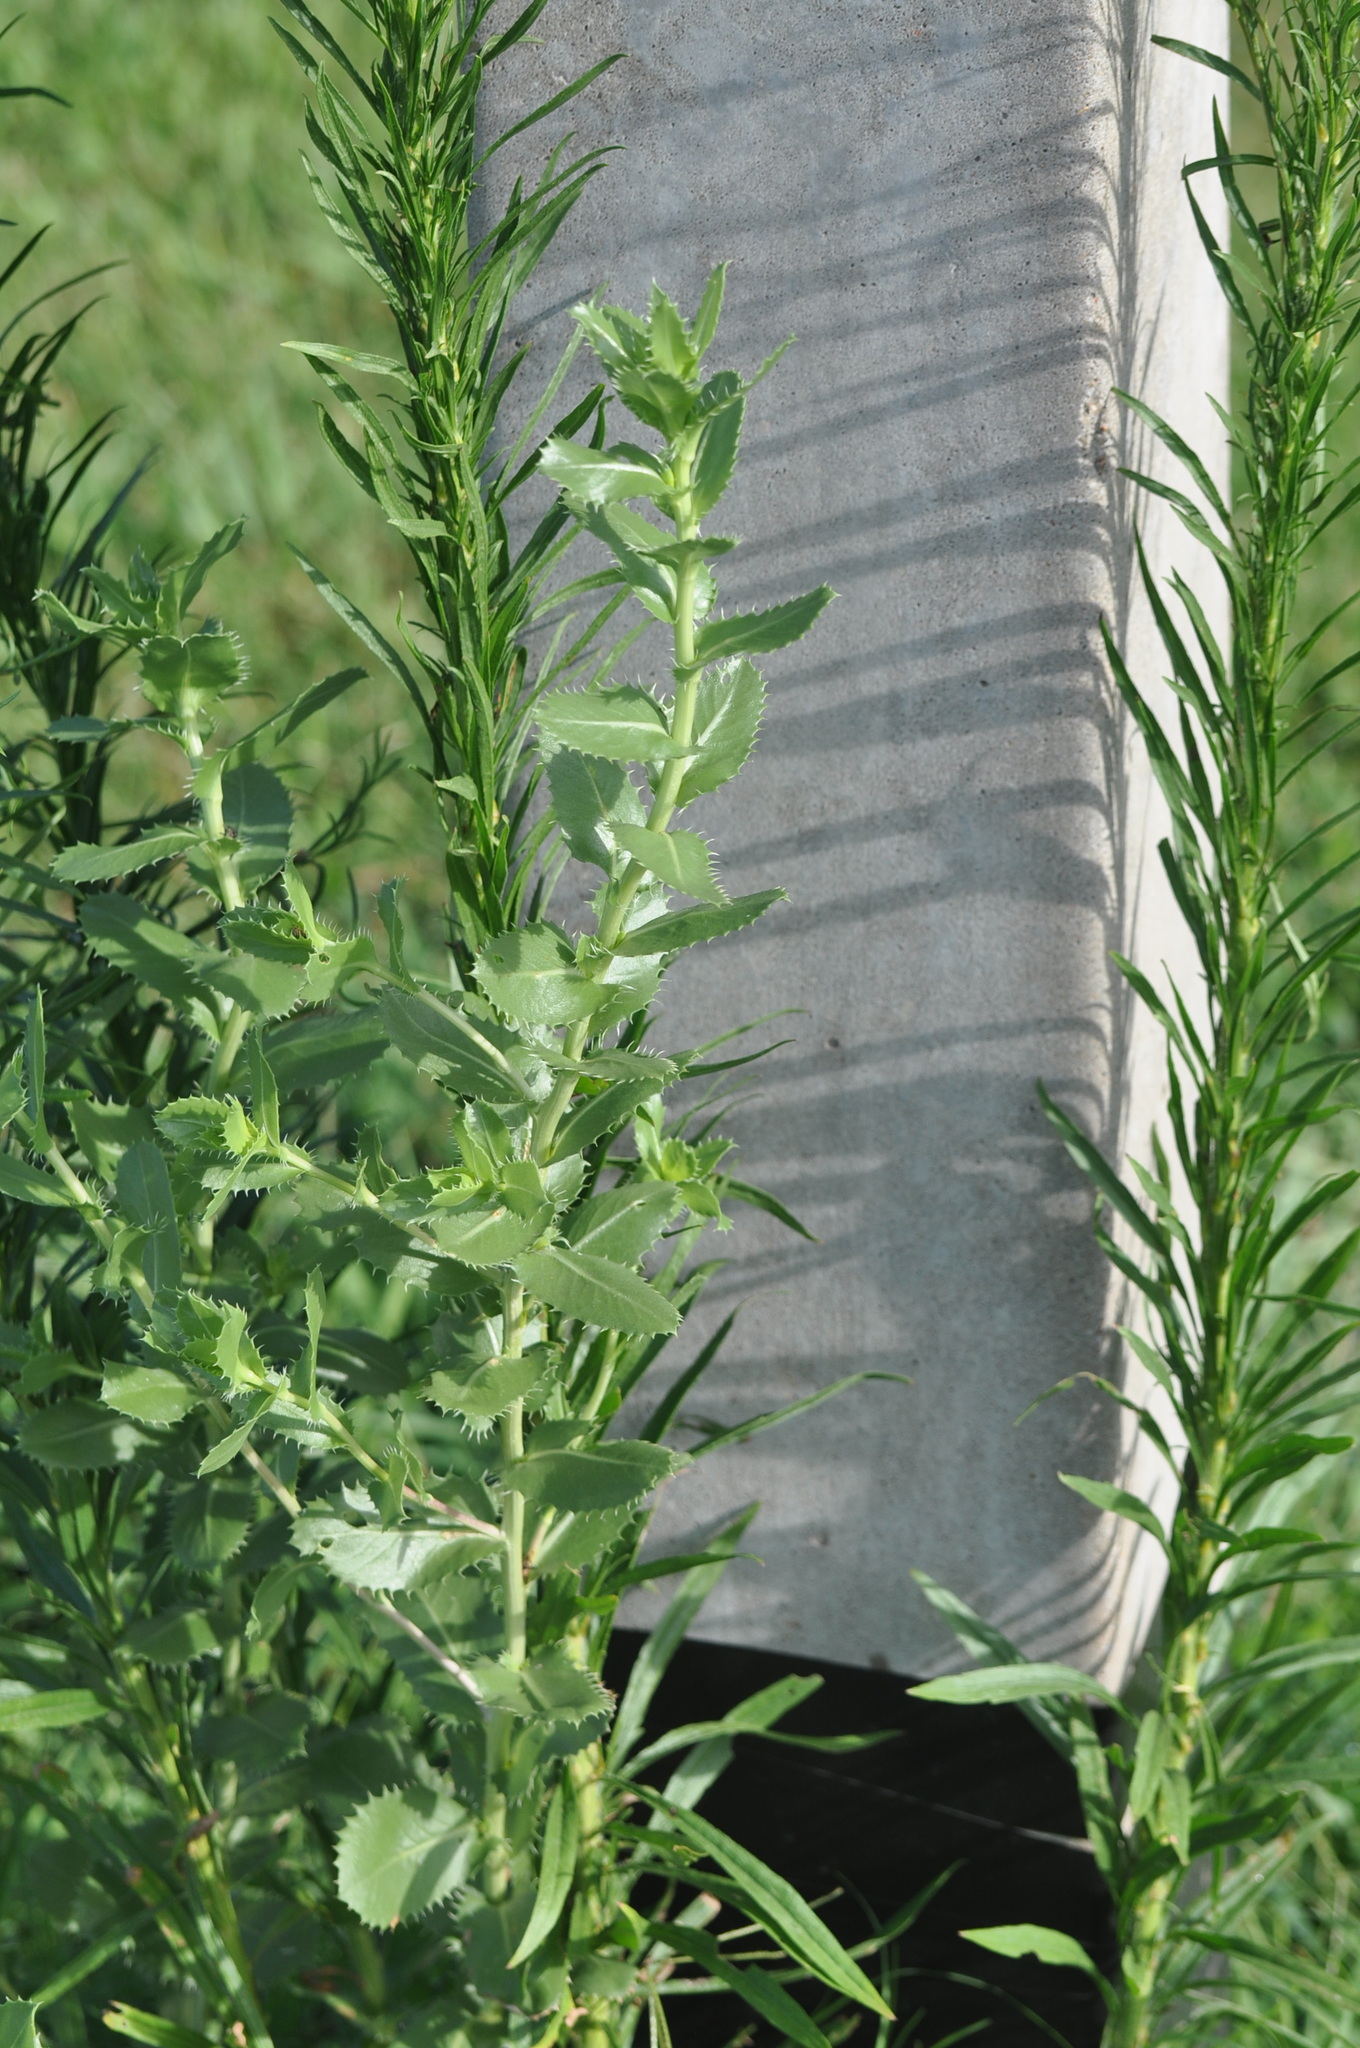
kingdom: Plantae
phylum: Tracheophyta
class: Magnoliopsida
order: Asterales
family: Asteraceae
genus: Grindelia
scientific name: Grindelia ciliata
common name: Goldenweed
